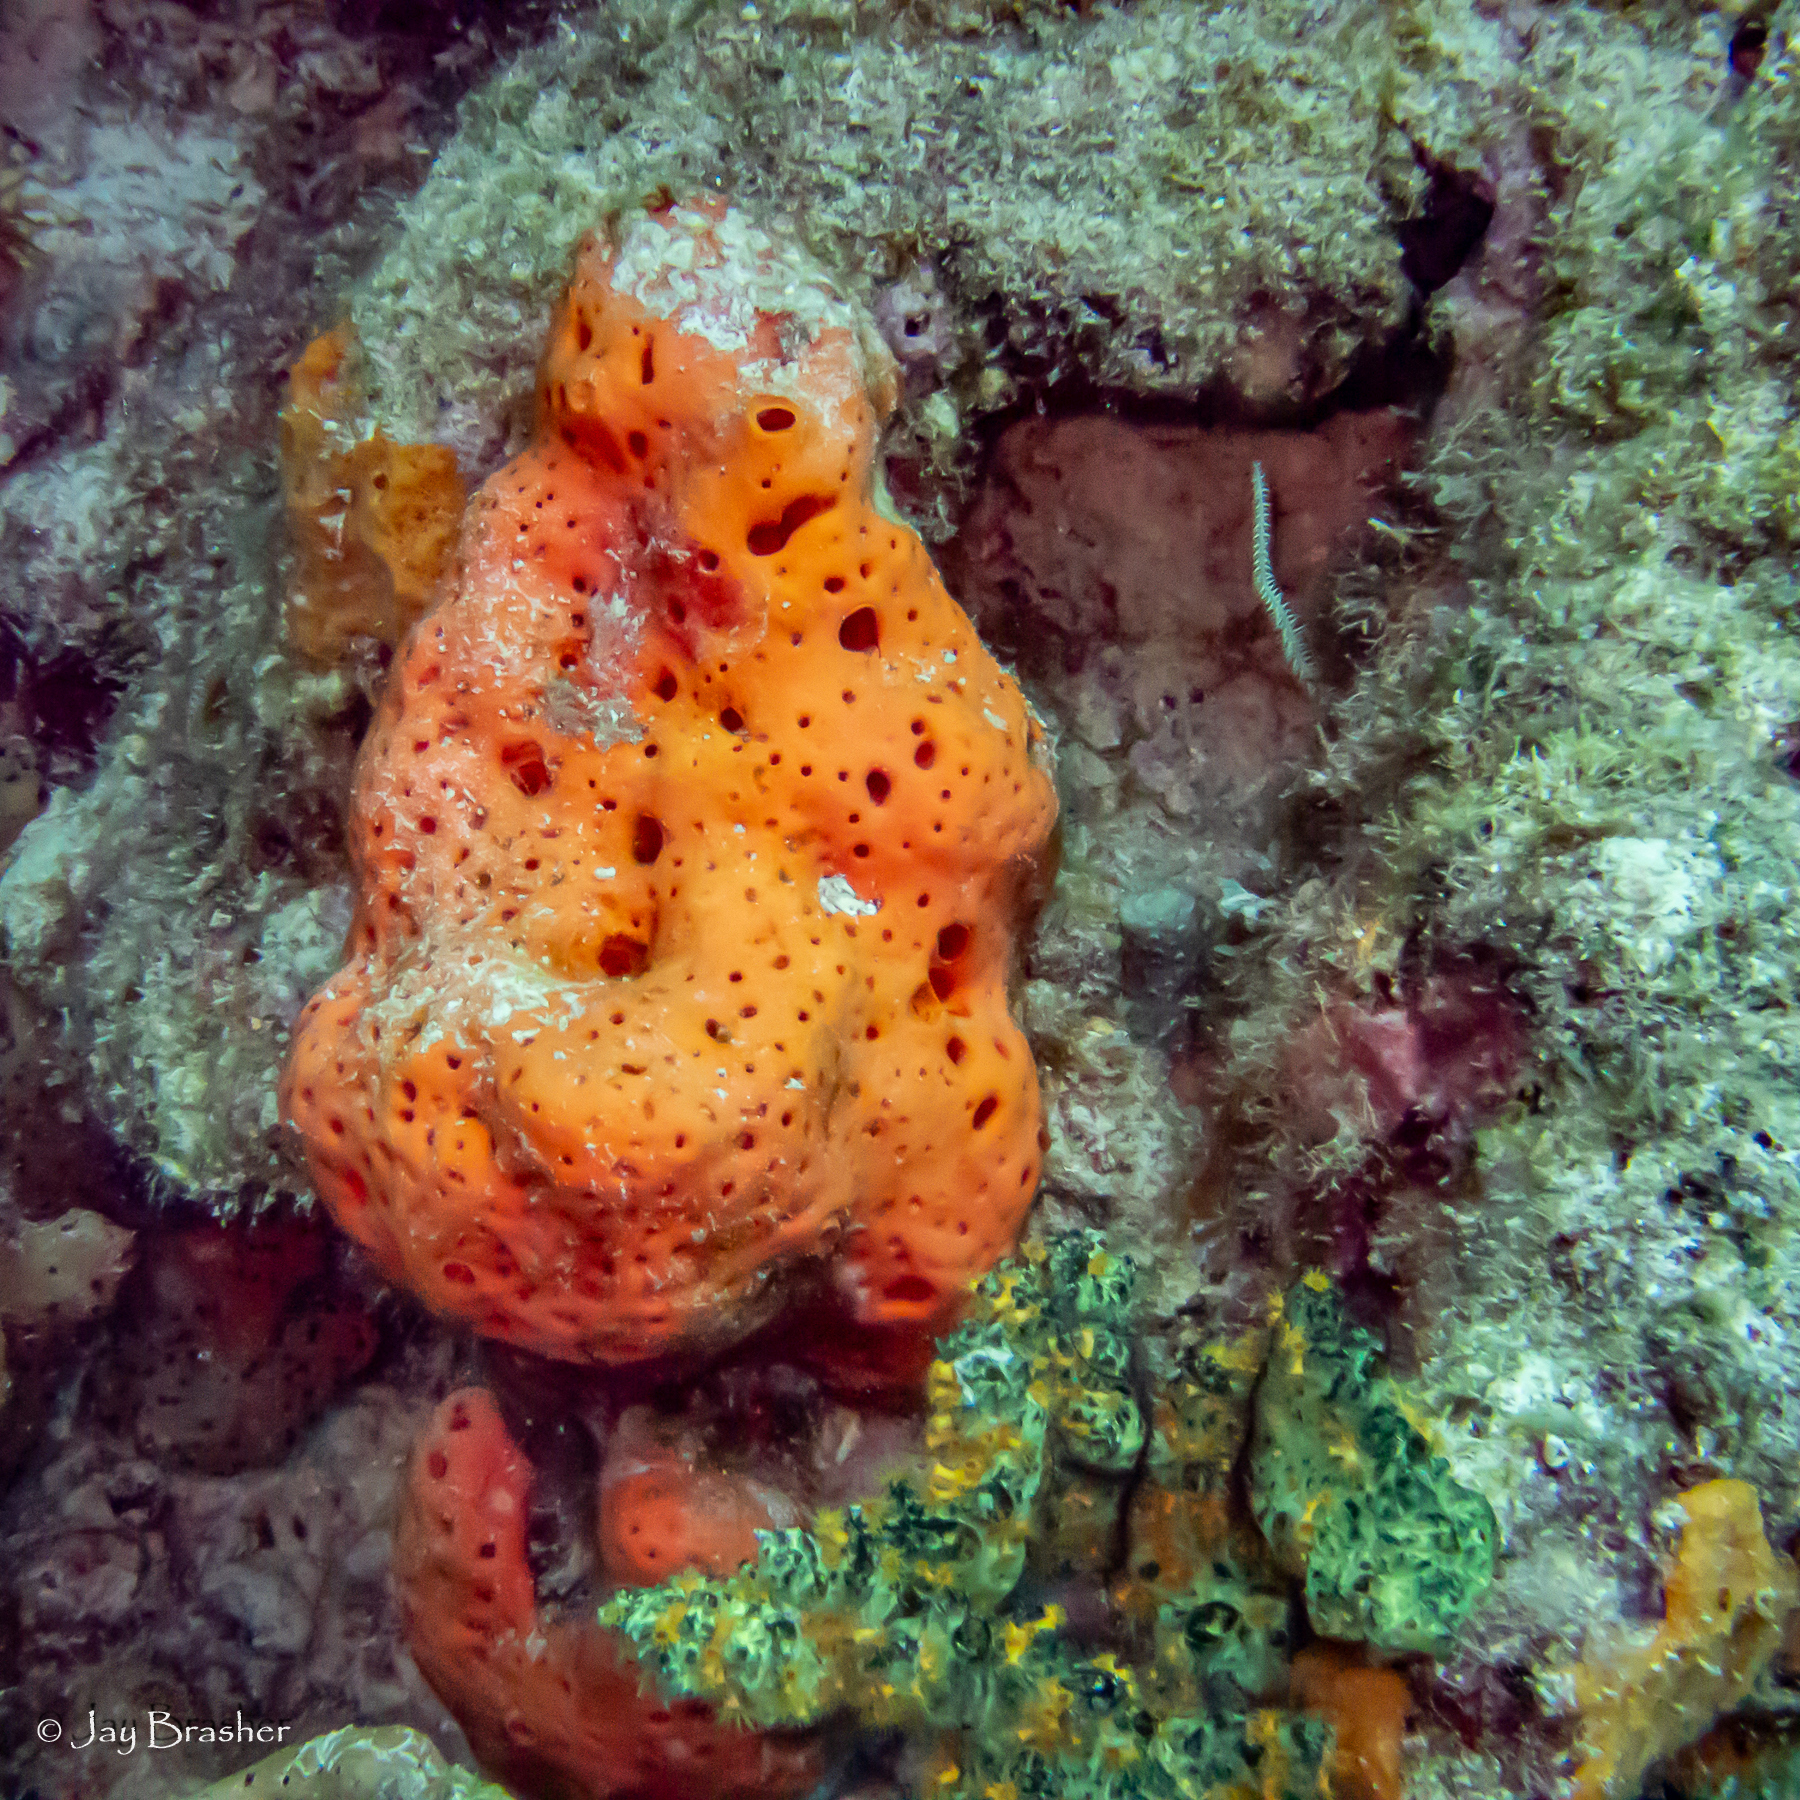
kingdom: Animalia
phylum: Porifera
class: Demospongiae
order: Agelasida
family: Agelasidae
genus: Agelas
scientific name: Agelas sventres
